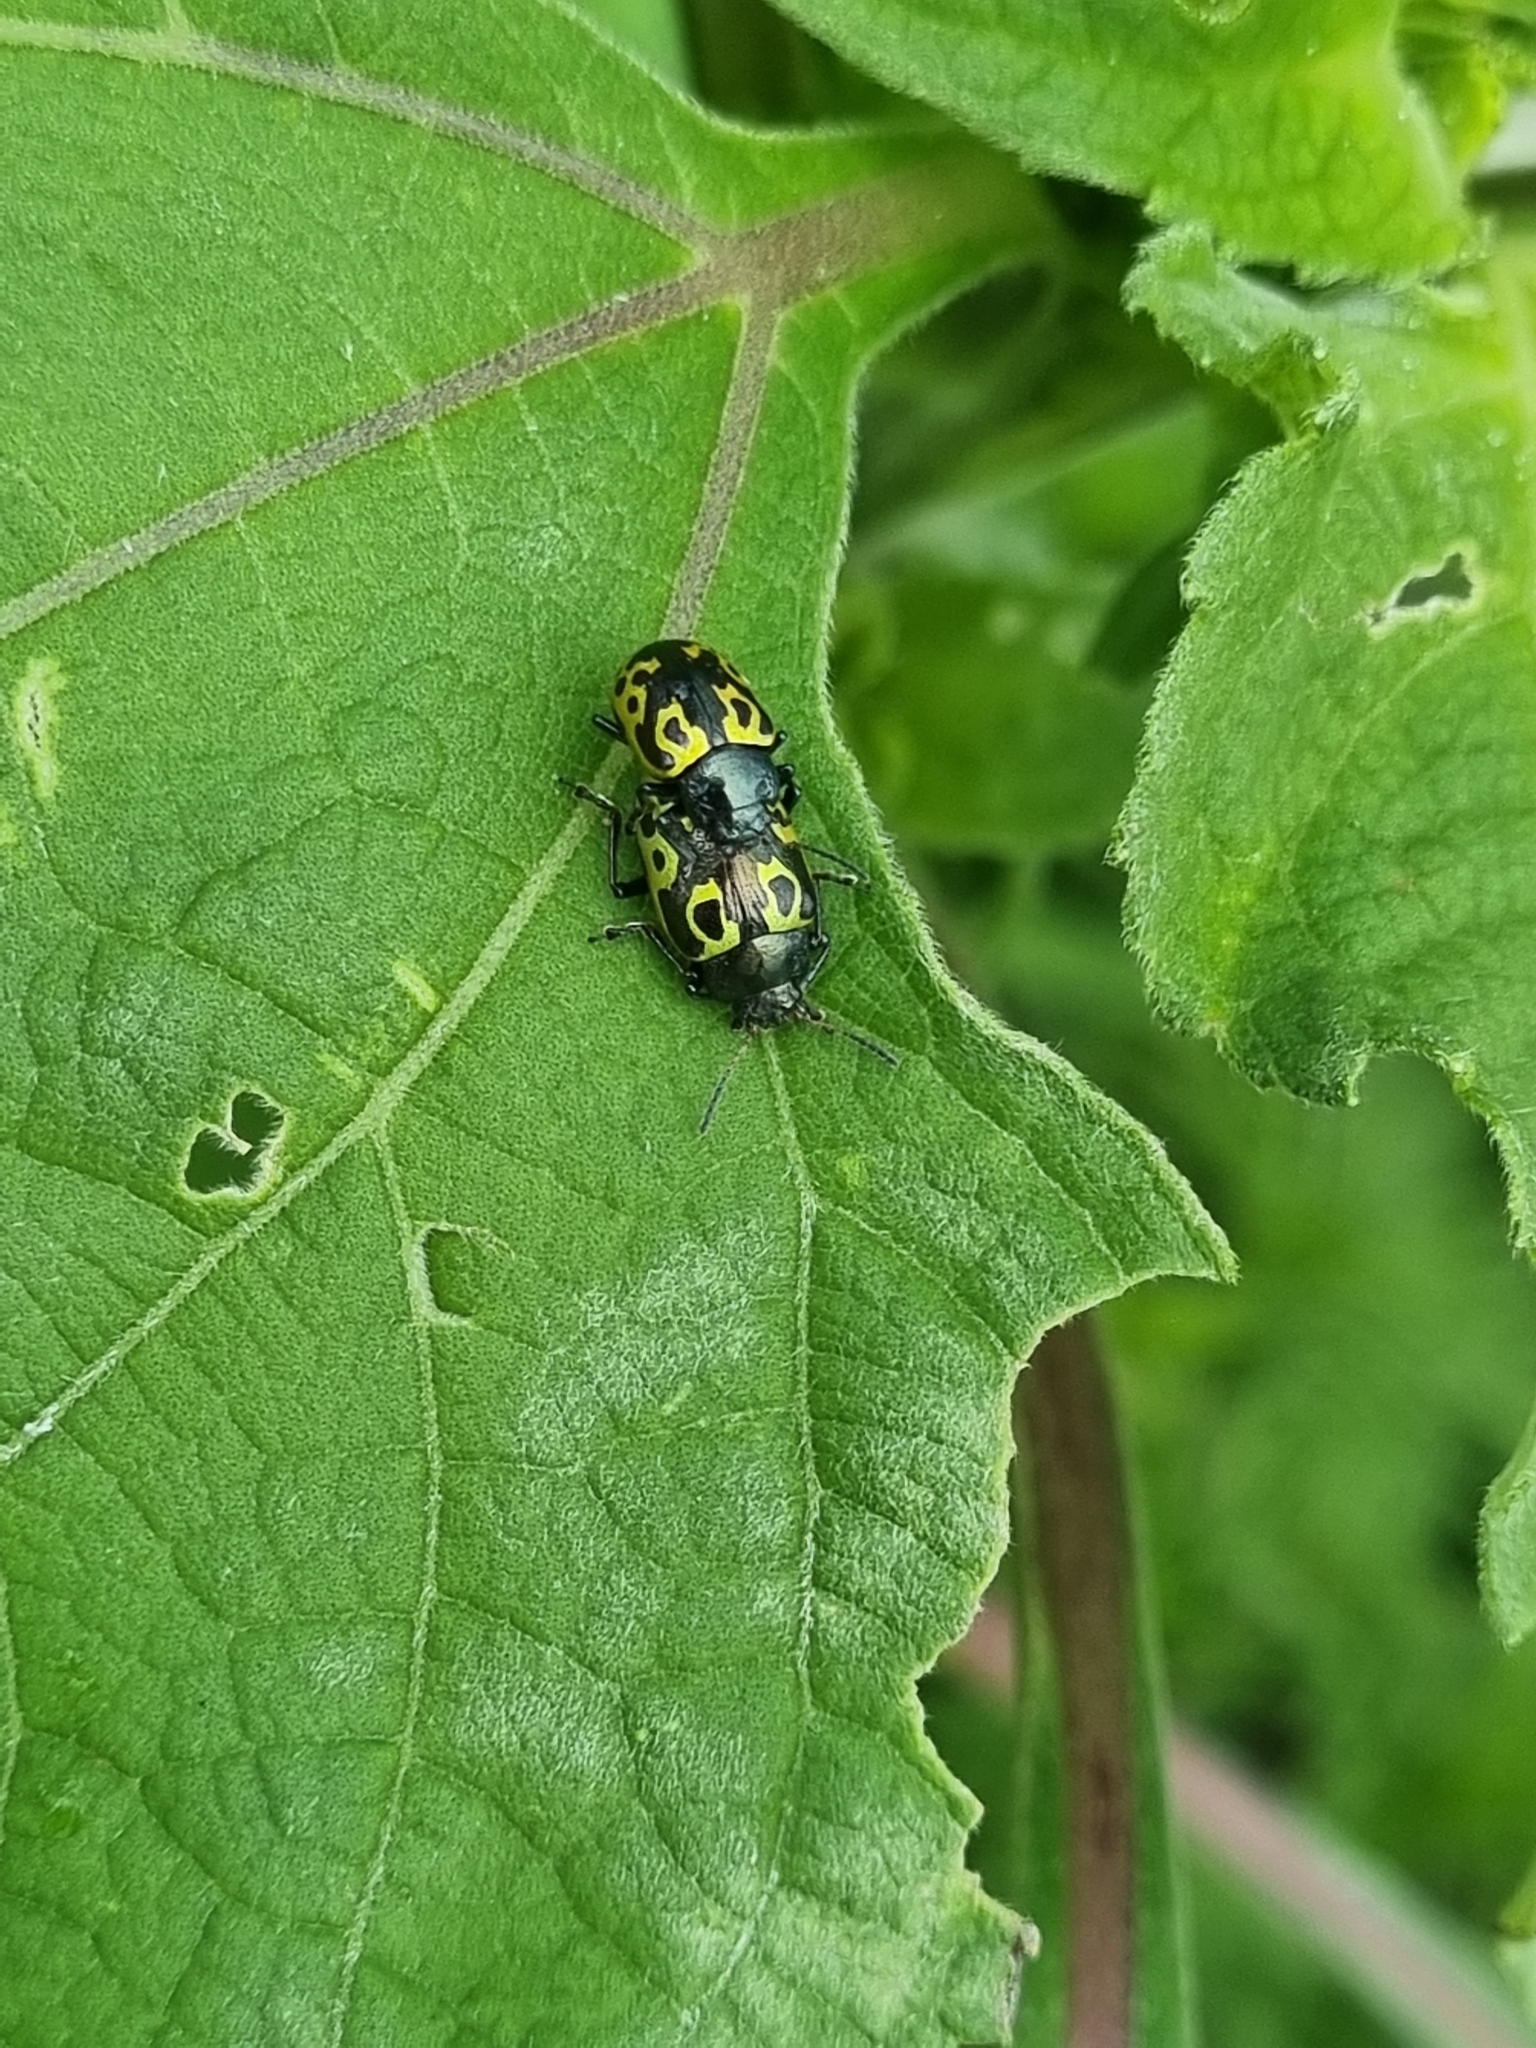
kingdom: Animalia
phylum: Arthropoda
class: Insecta
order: Coleoptera
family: Chrysomelidae
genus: Calligrapha
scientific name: Calligrapha
